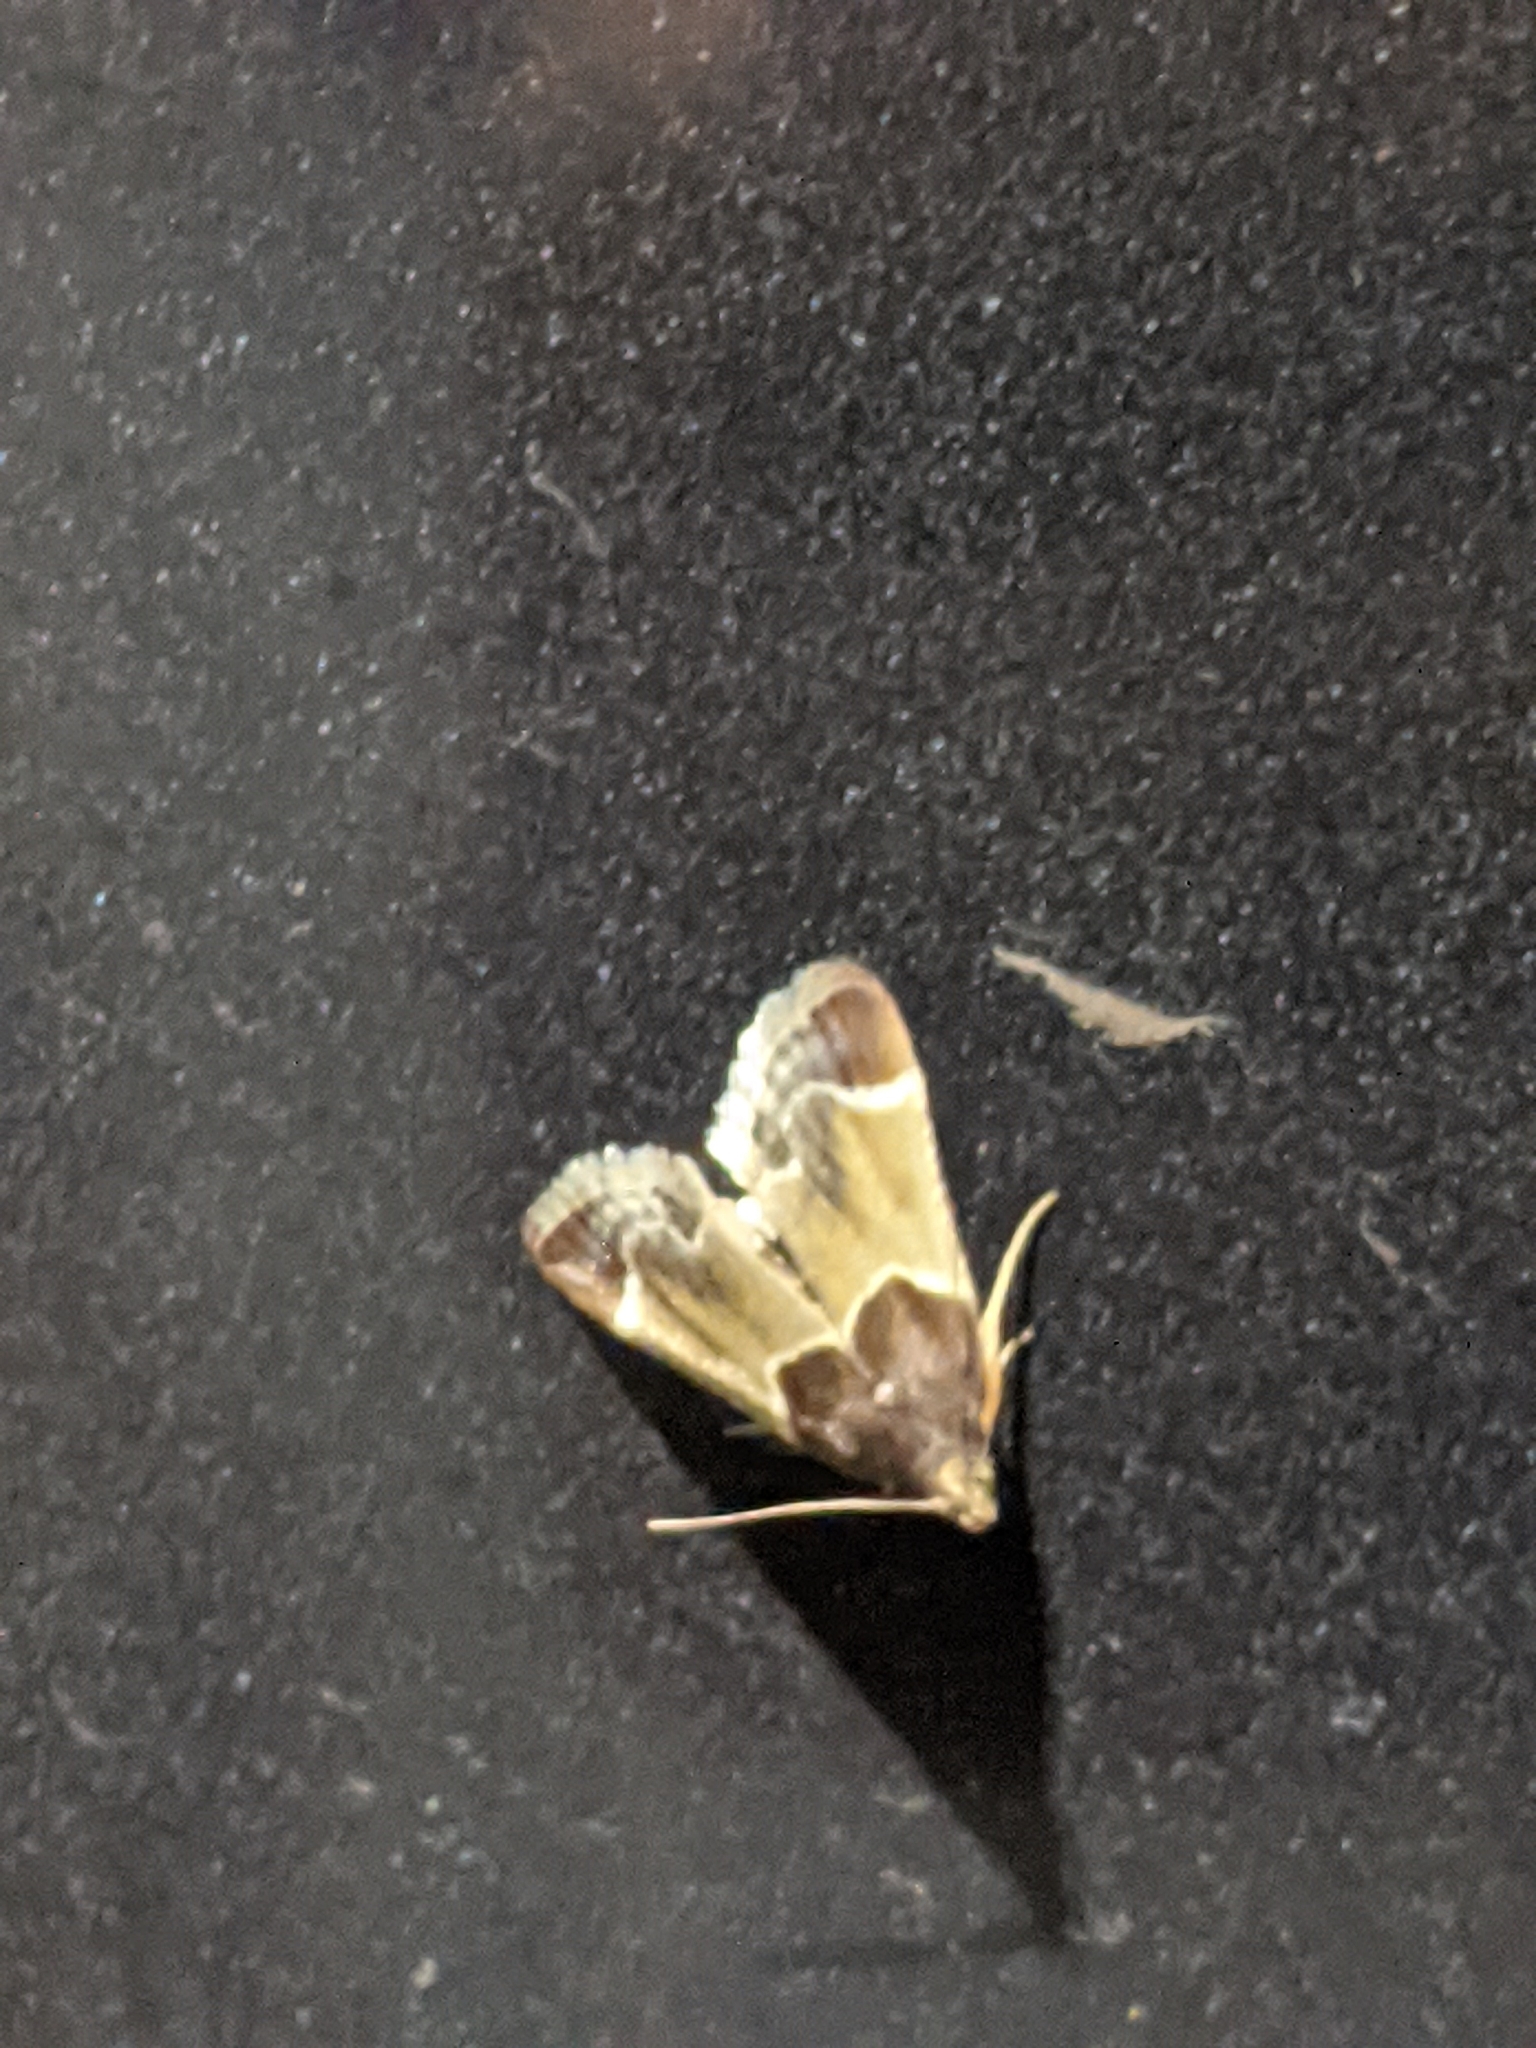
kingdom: Animalia
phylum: Arthropoda
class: Insecta
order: Lepidoptera
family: Pyralidae
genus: Pyralis
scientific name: Pyralis farinalis
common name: Meal moth
